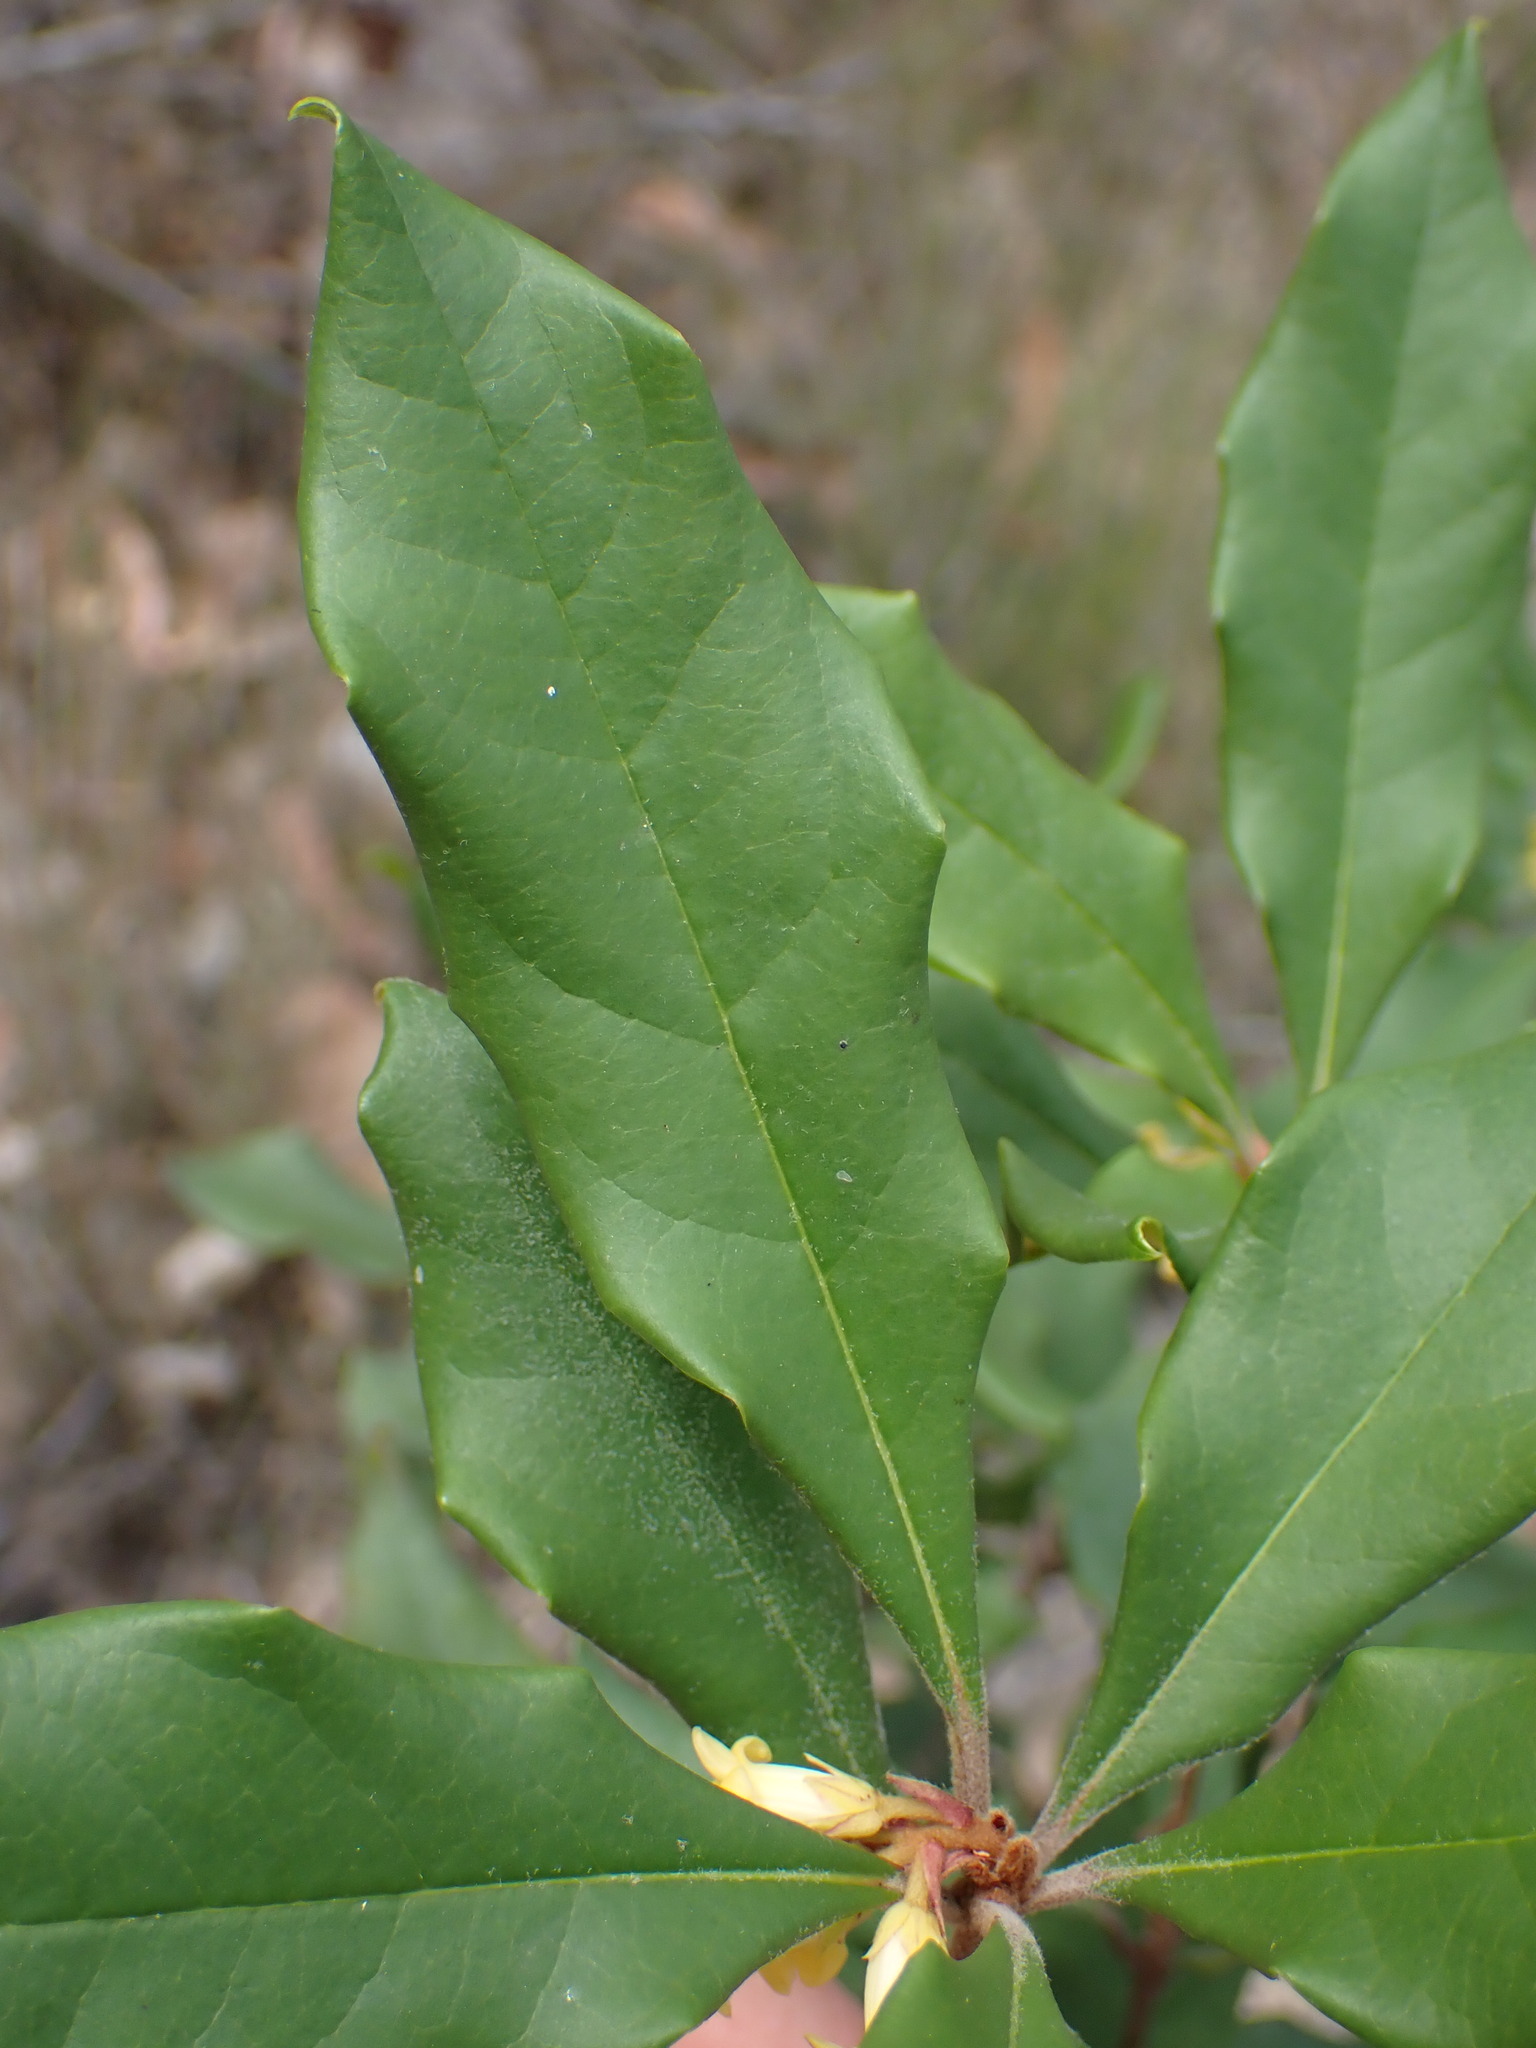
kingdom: Plantae
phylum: Tracheophyta
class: Magnoliopsida
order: Apiales
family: Pittosporaceae
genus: Pittosporum
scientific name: Pittosporum revolutum
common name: Brisbane-laurel
